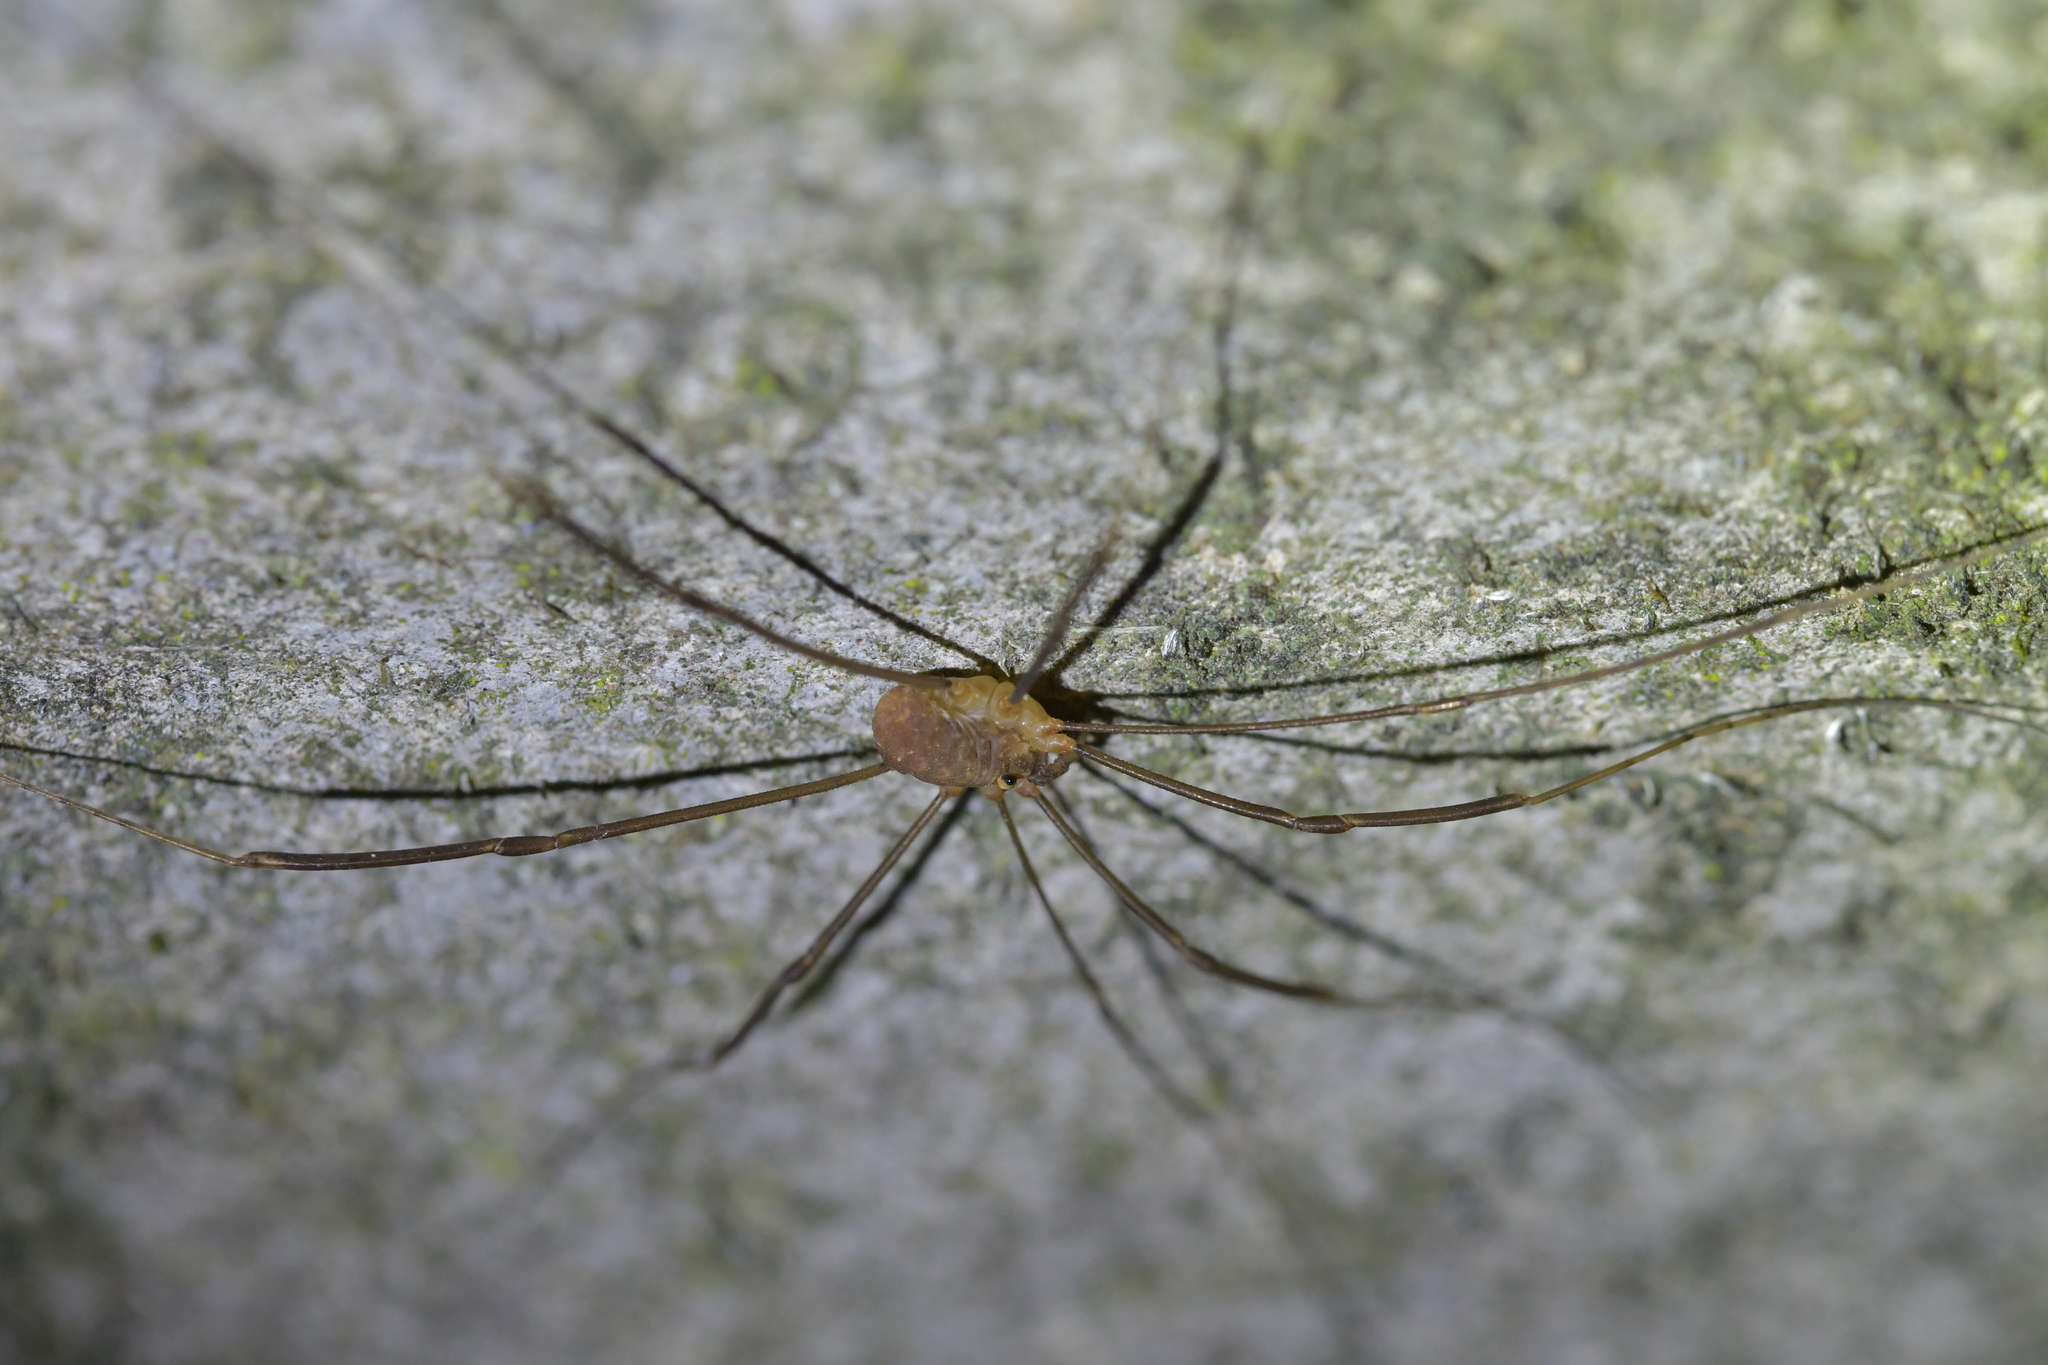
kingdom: Animalia
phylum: Arthropoda
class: Arachnida
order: Opiliones
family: Sclerosomatidae
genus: Nelima
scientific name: Nelima doriae
